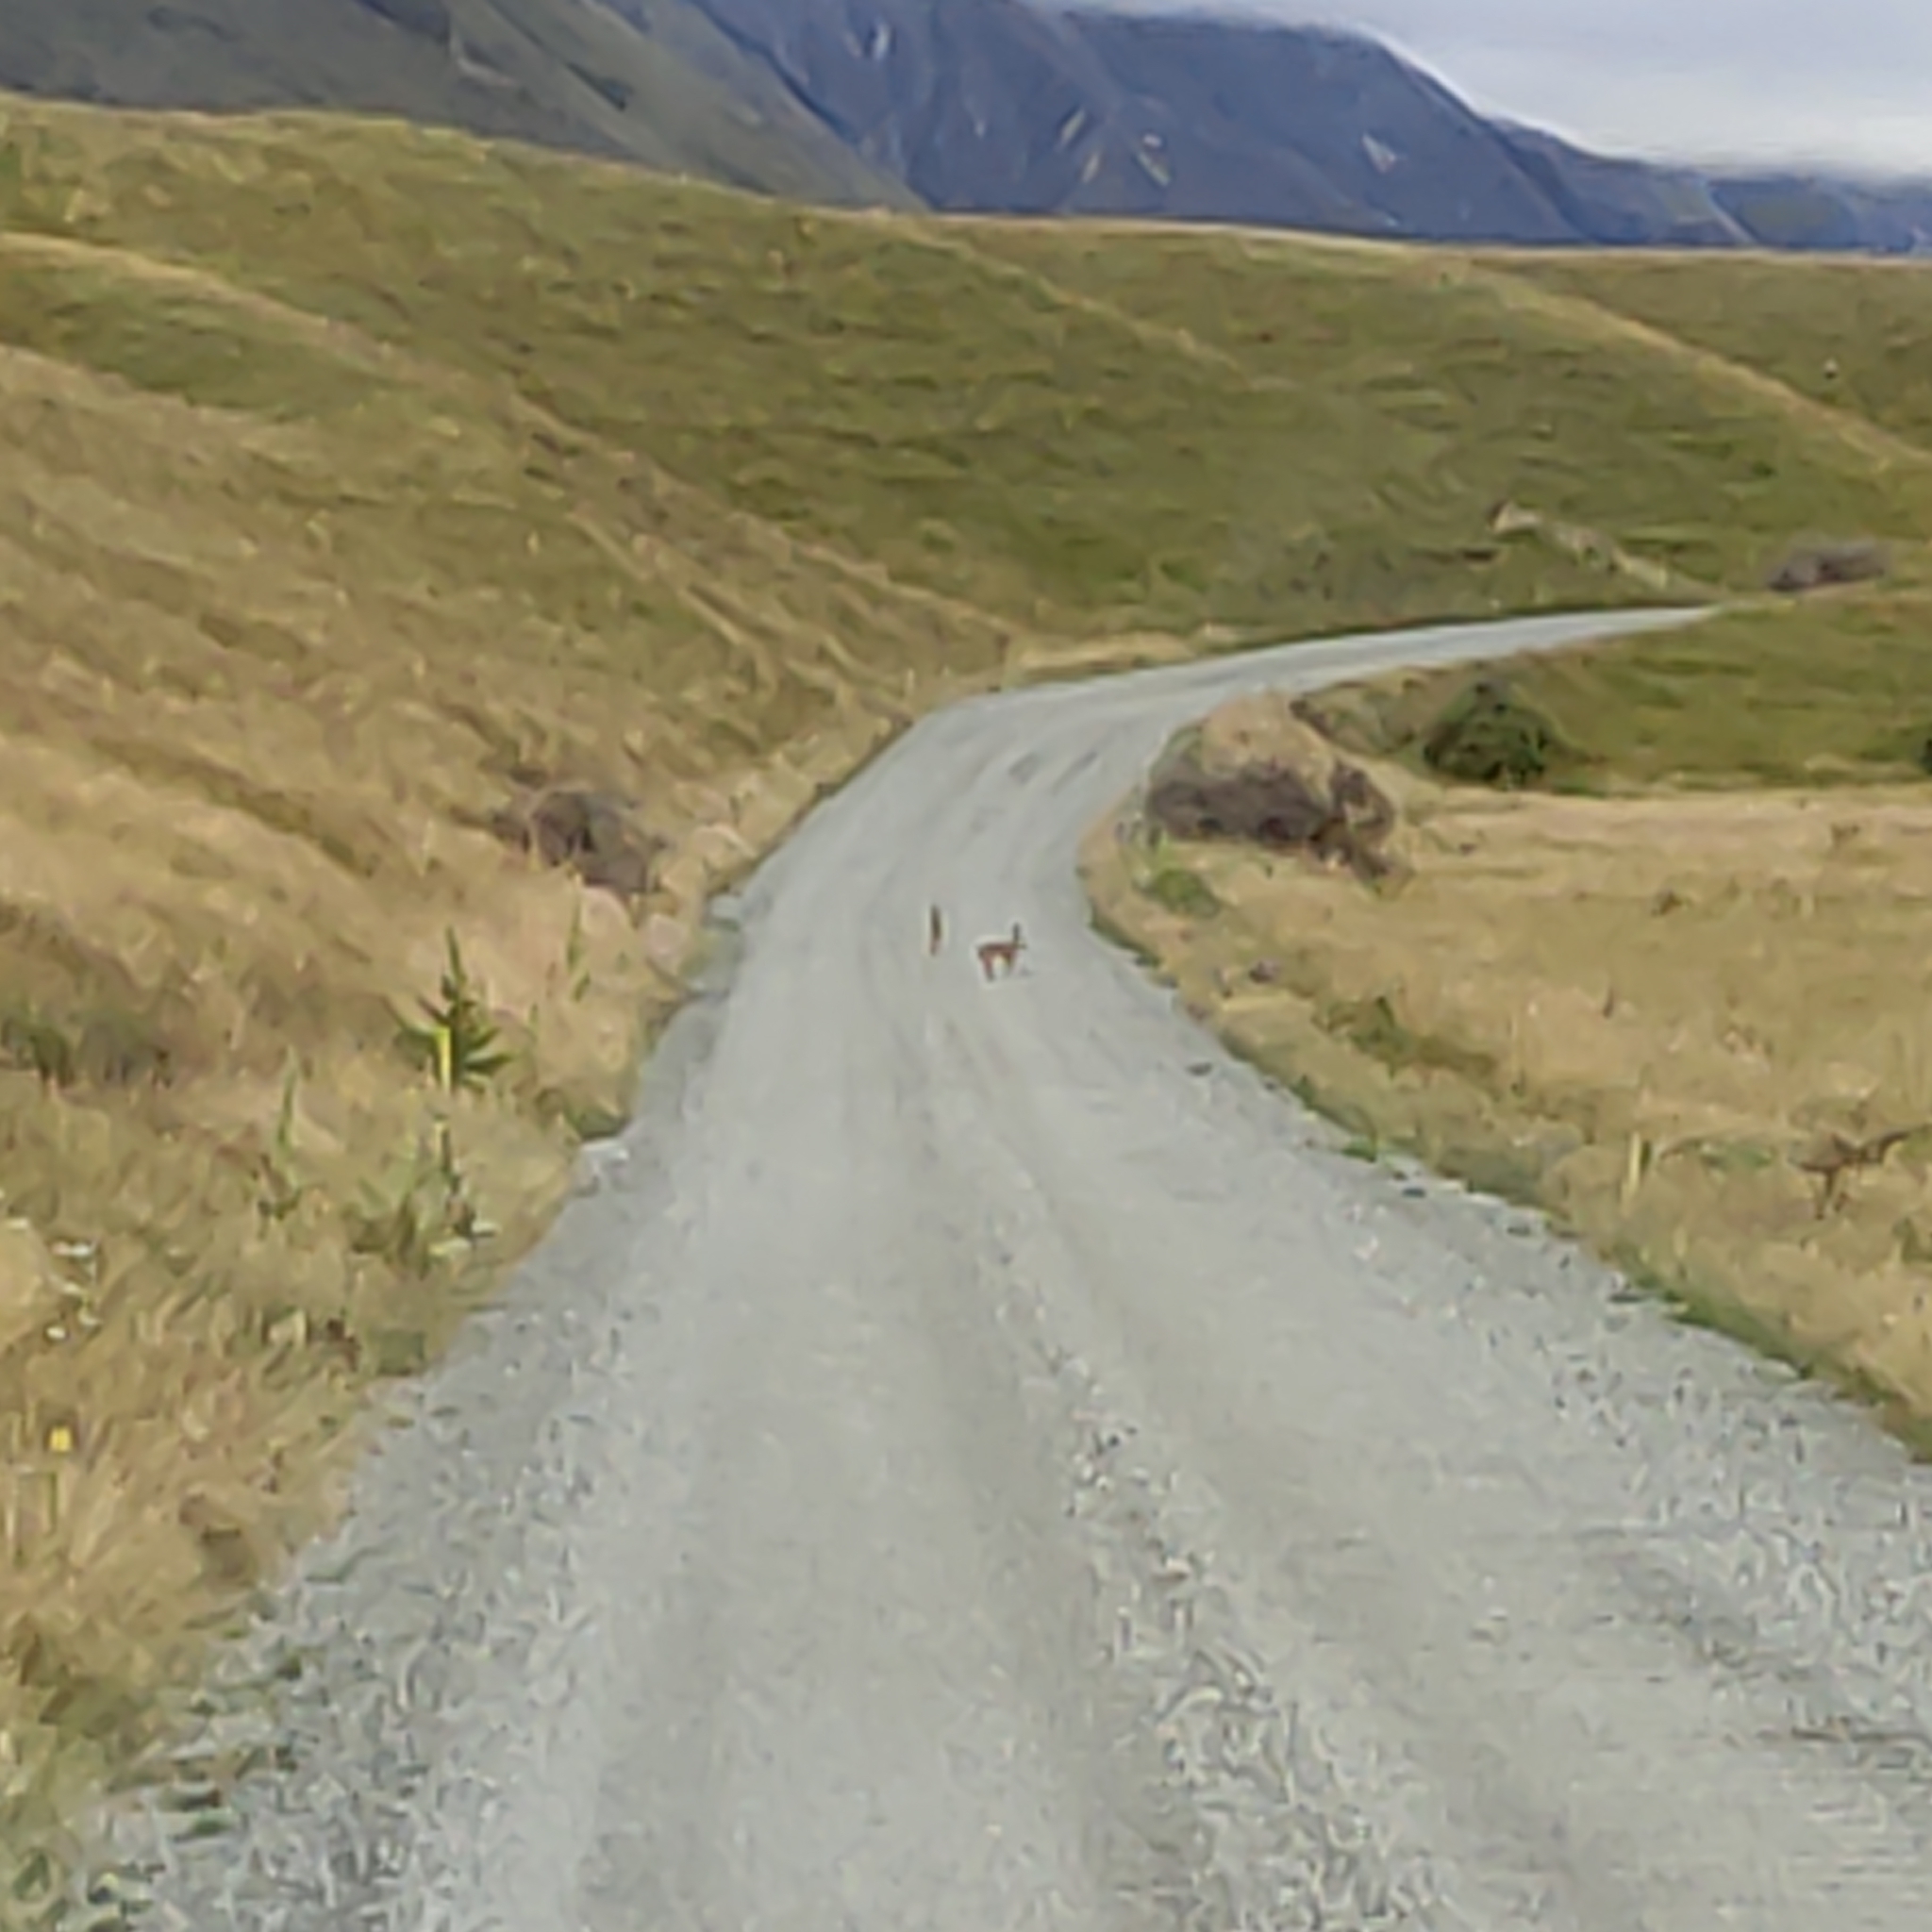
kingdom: Animalia
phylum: Chordata
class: Mammalia
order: Lagomorpha
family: Leporidae
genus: Lepus
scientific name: Lepus europaeus
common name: European hare
